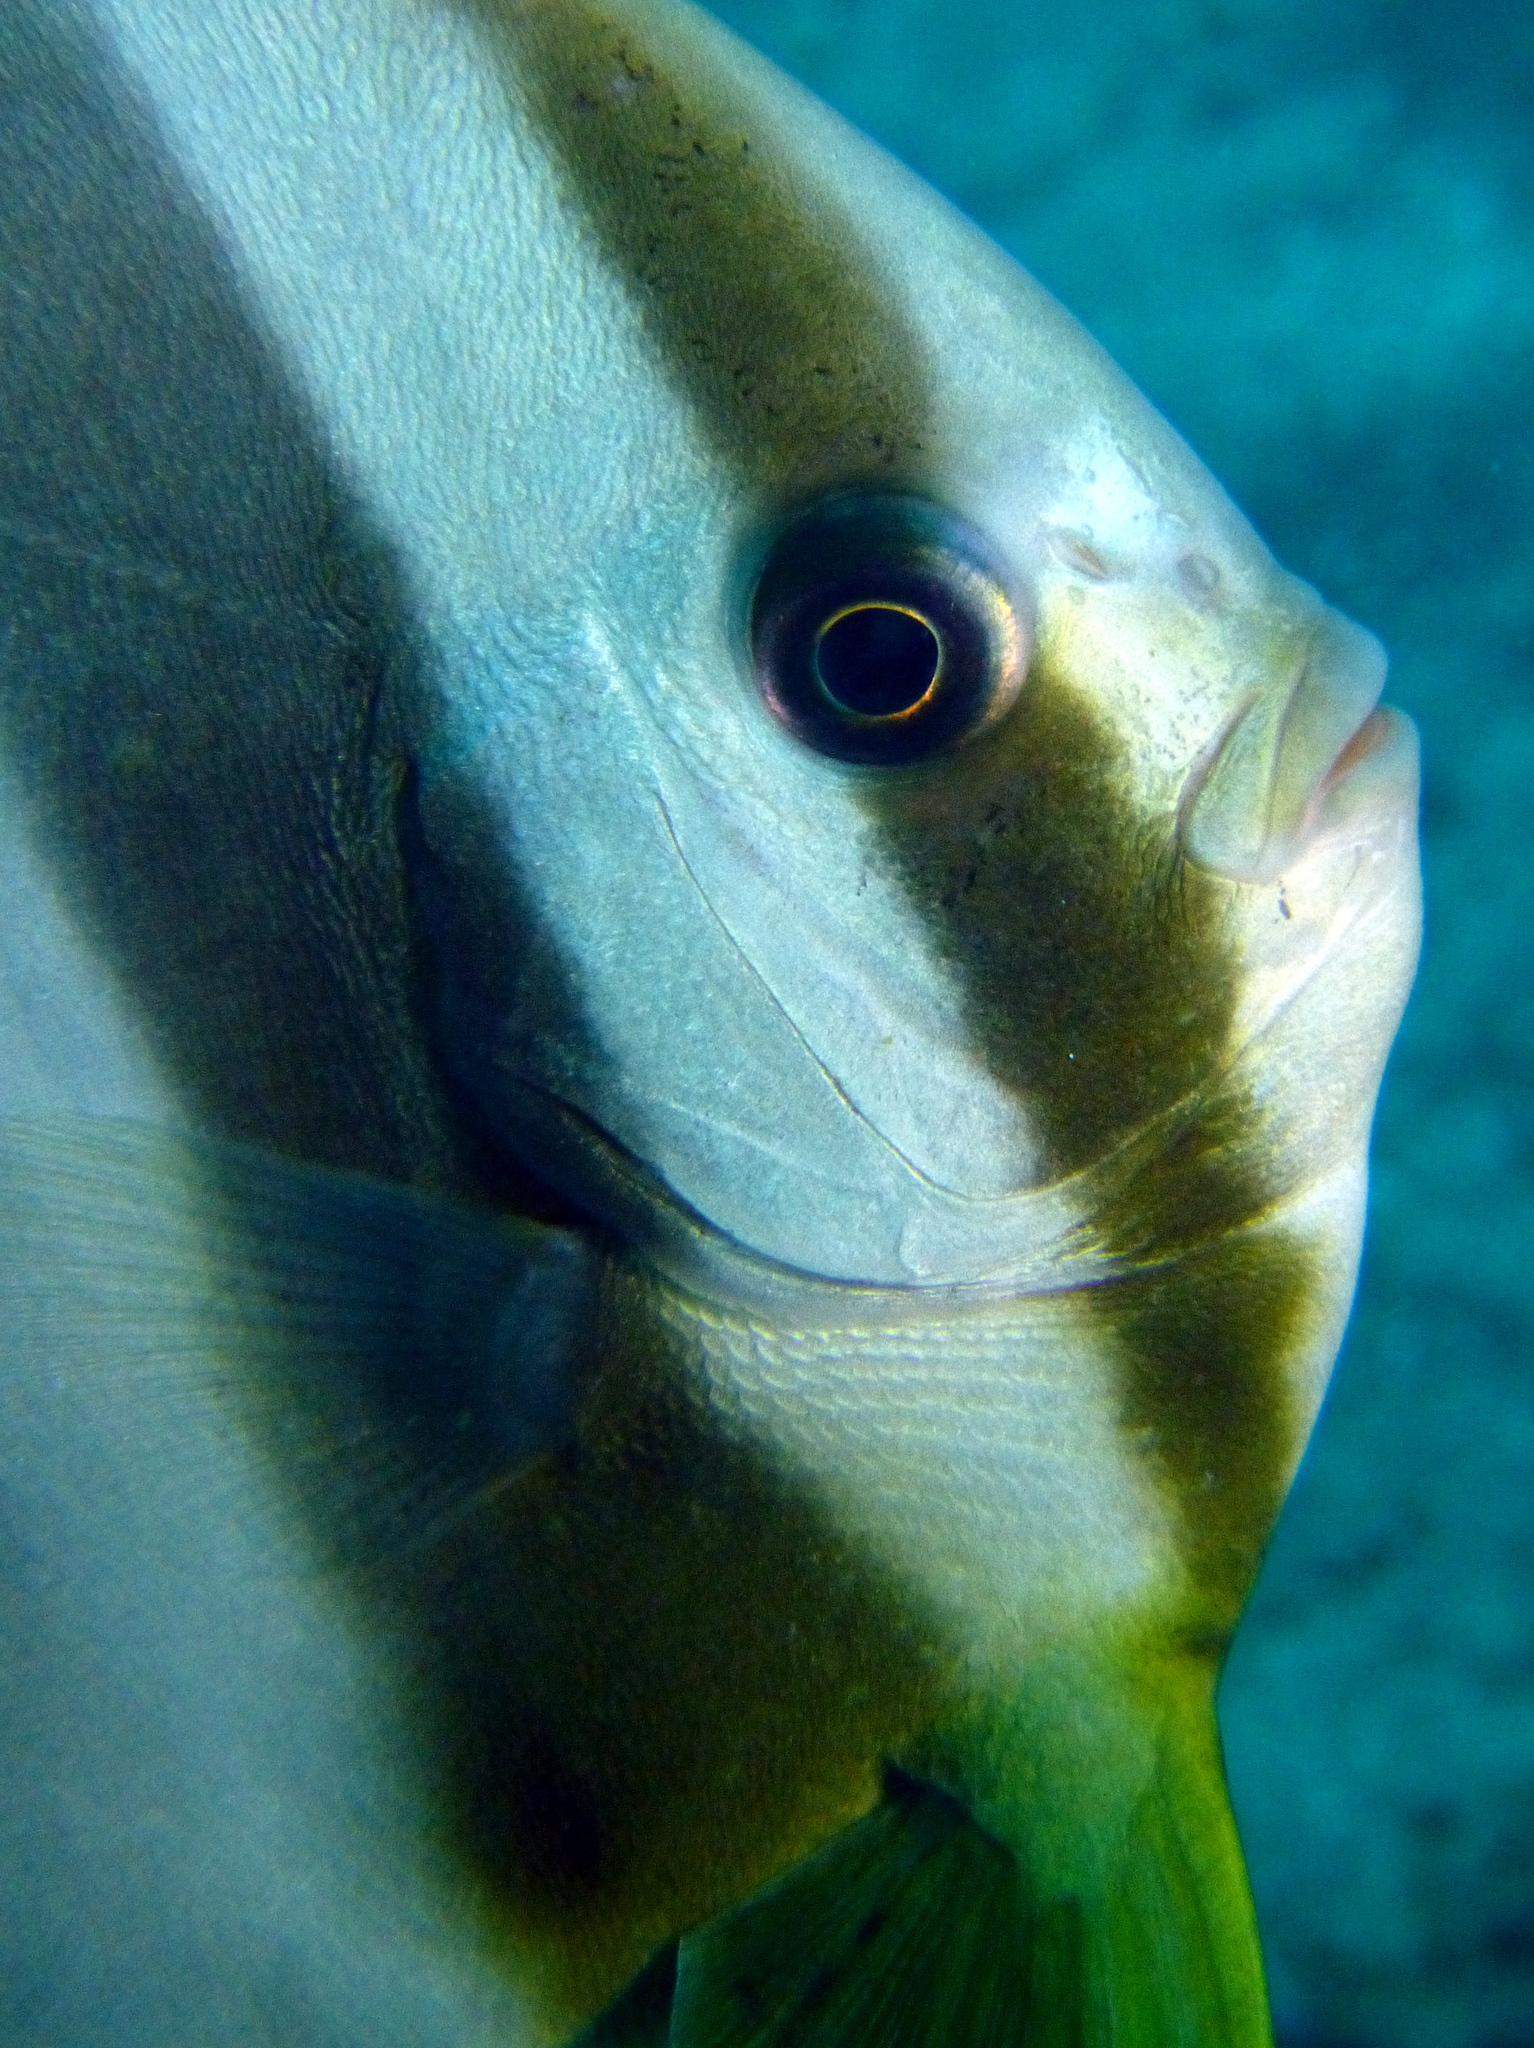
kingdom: Animalia
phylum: Chordata
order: Perciformes
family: Ephippidae
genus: Platax
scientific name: Platax teira
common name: Longfin baitfish
